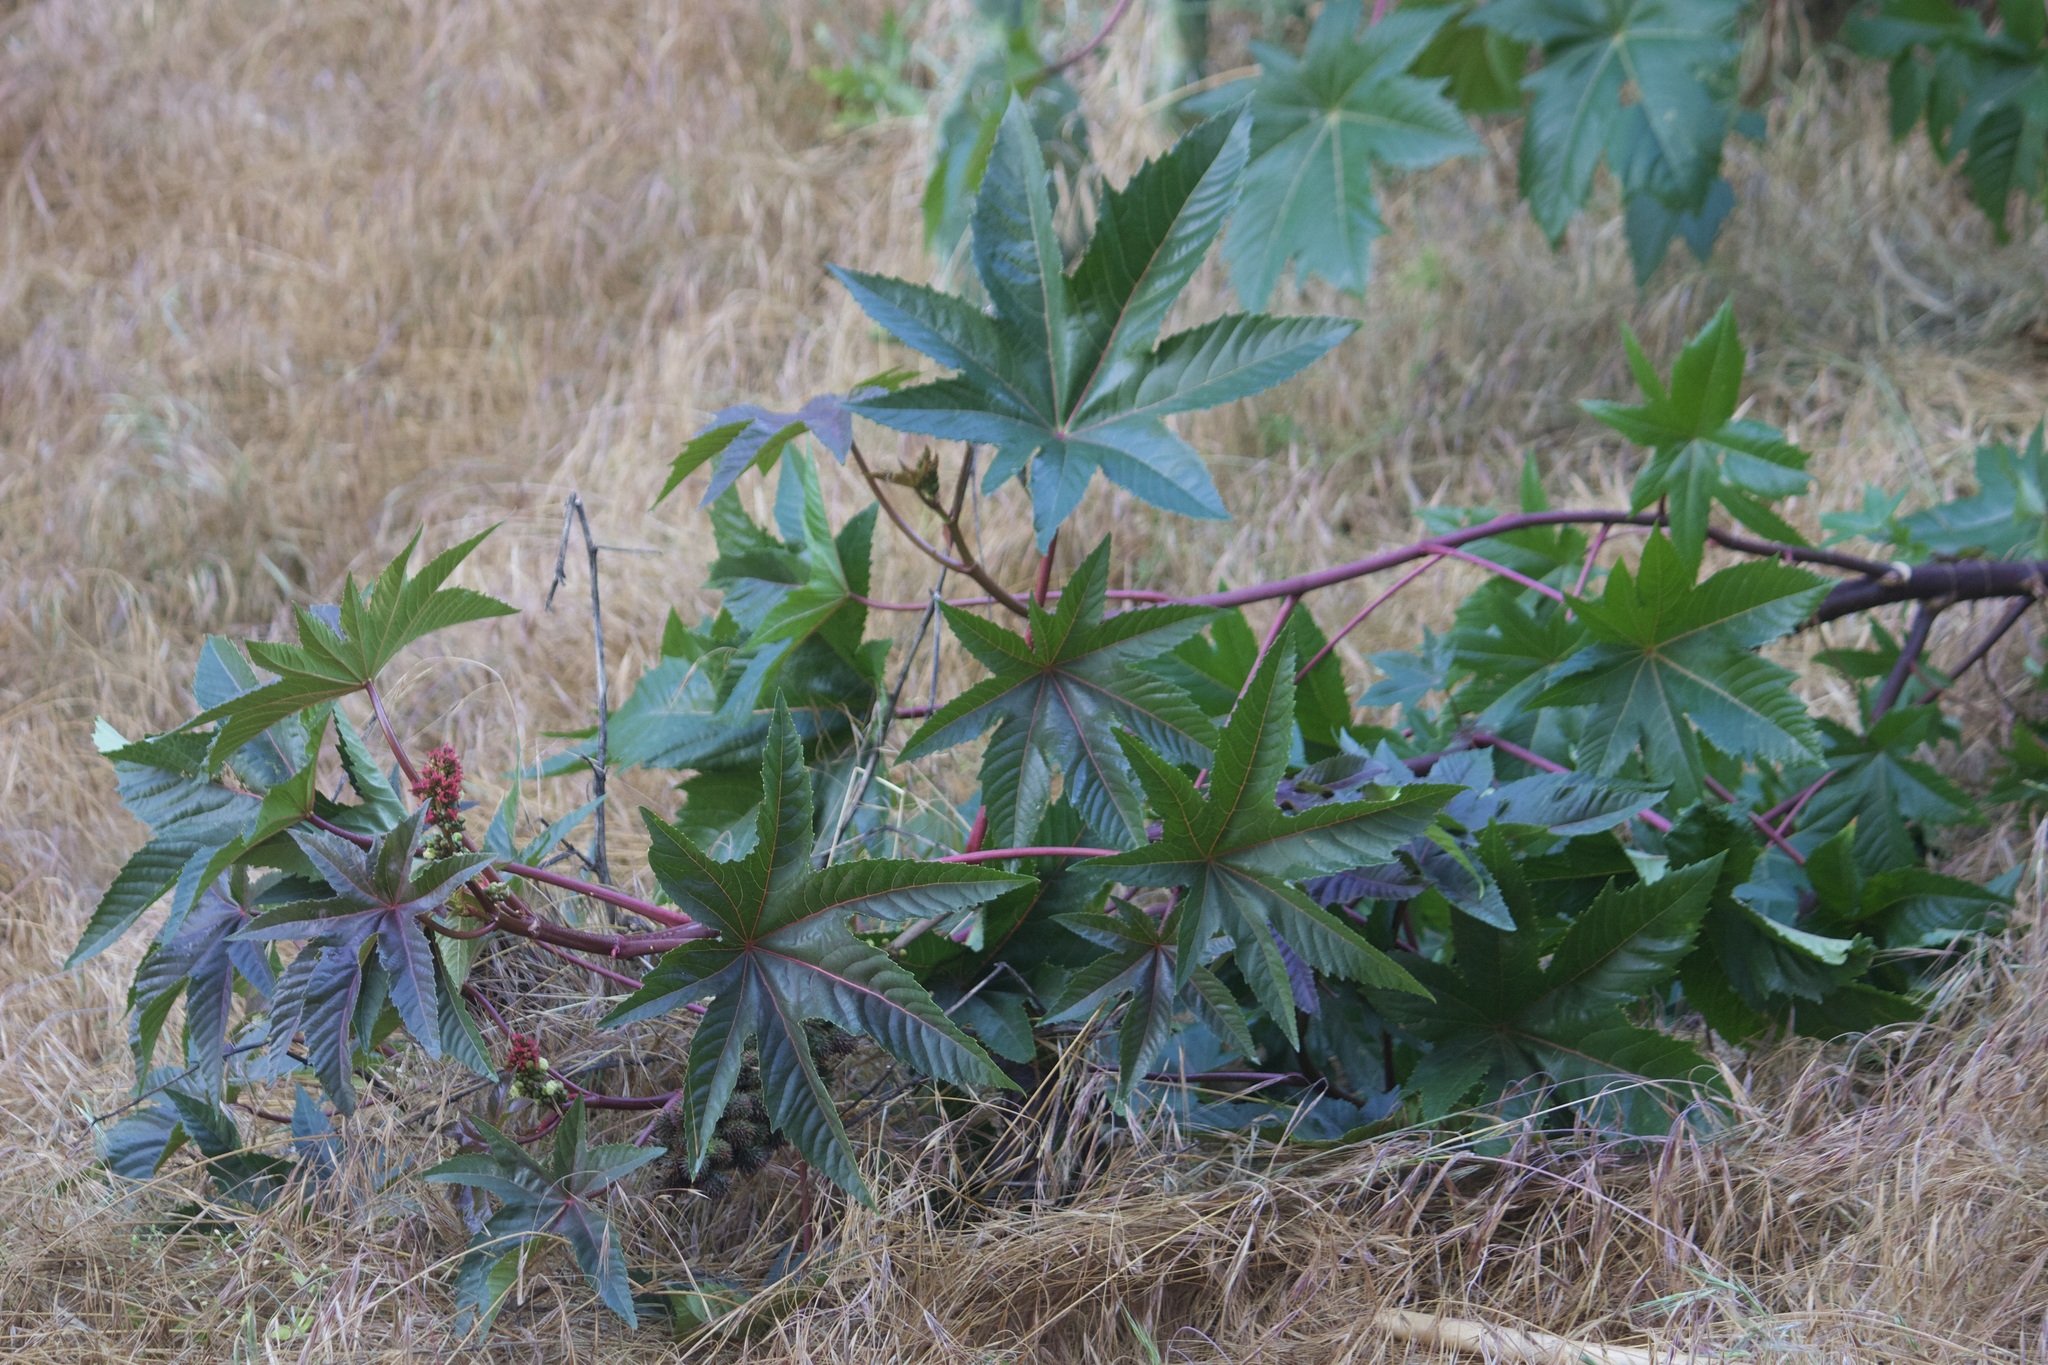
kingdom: Plantae
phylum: Tracheophyta
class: Magnoliopsida
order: Malpighiales
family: Euphorbiaceae
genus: Ricinus
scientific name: Ricinus communis
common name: Castor-oil-plant
